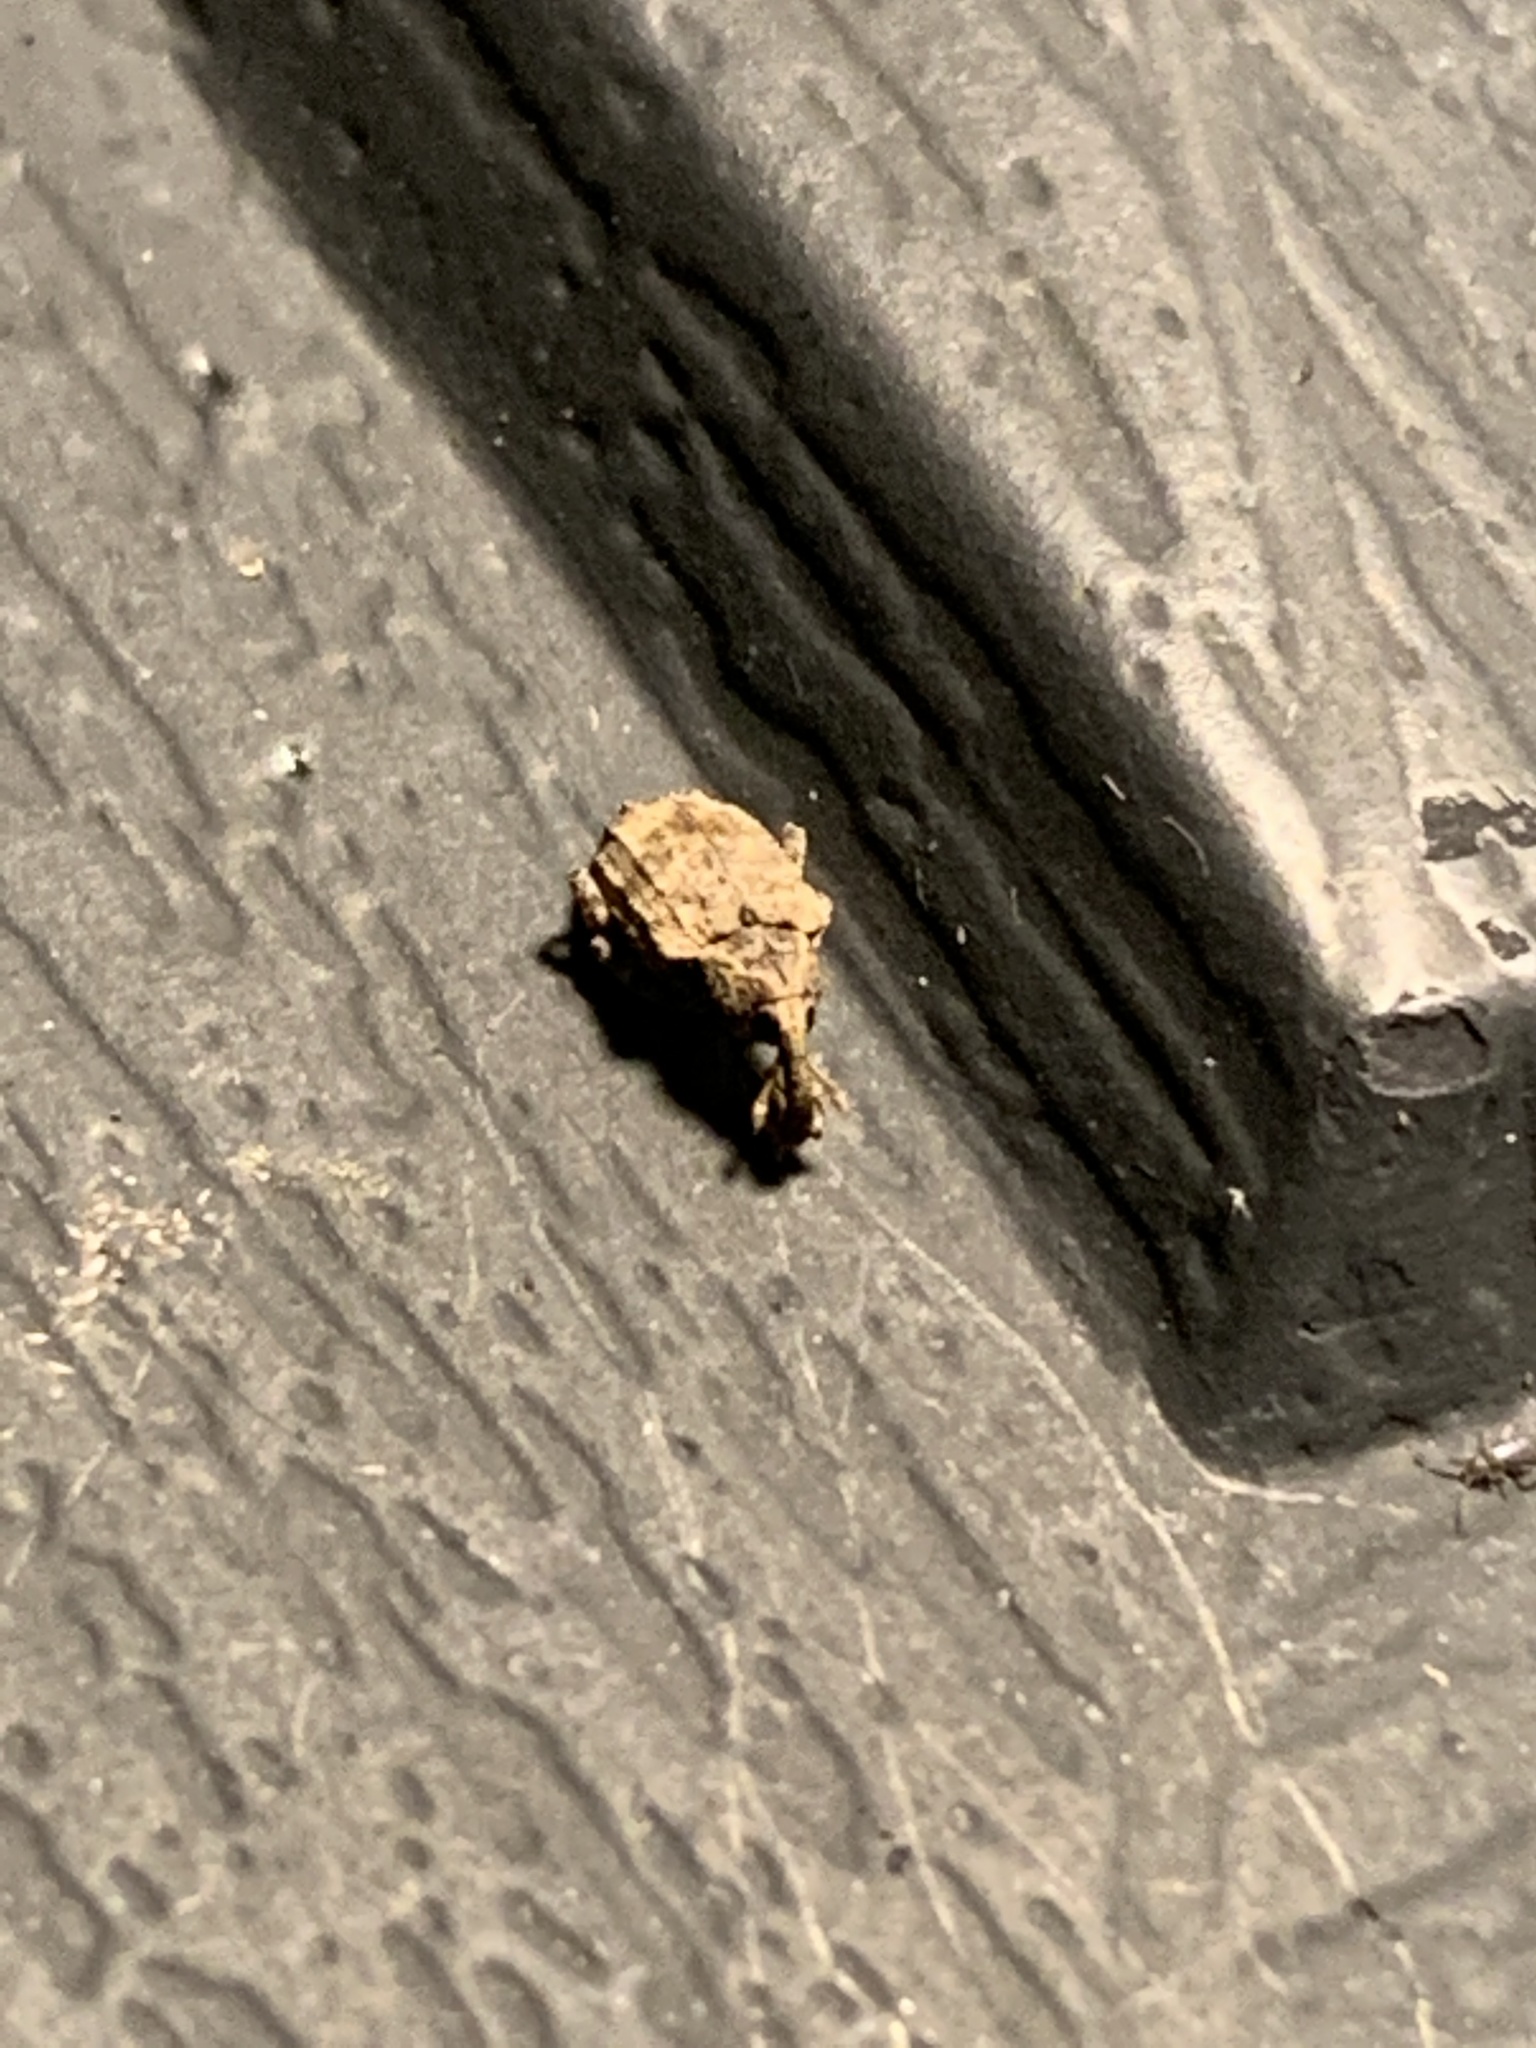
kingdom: Animalia
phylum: Arthropoda
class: Insecta
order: Coleoptera
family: Curculionidae
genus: Conotrachelus
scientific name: Conotrachelus seniculus
